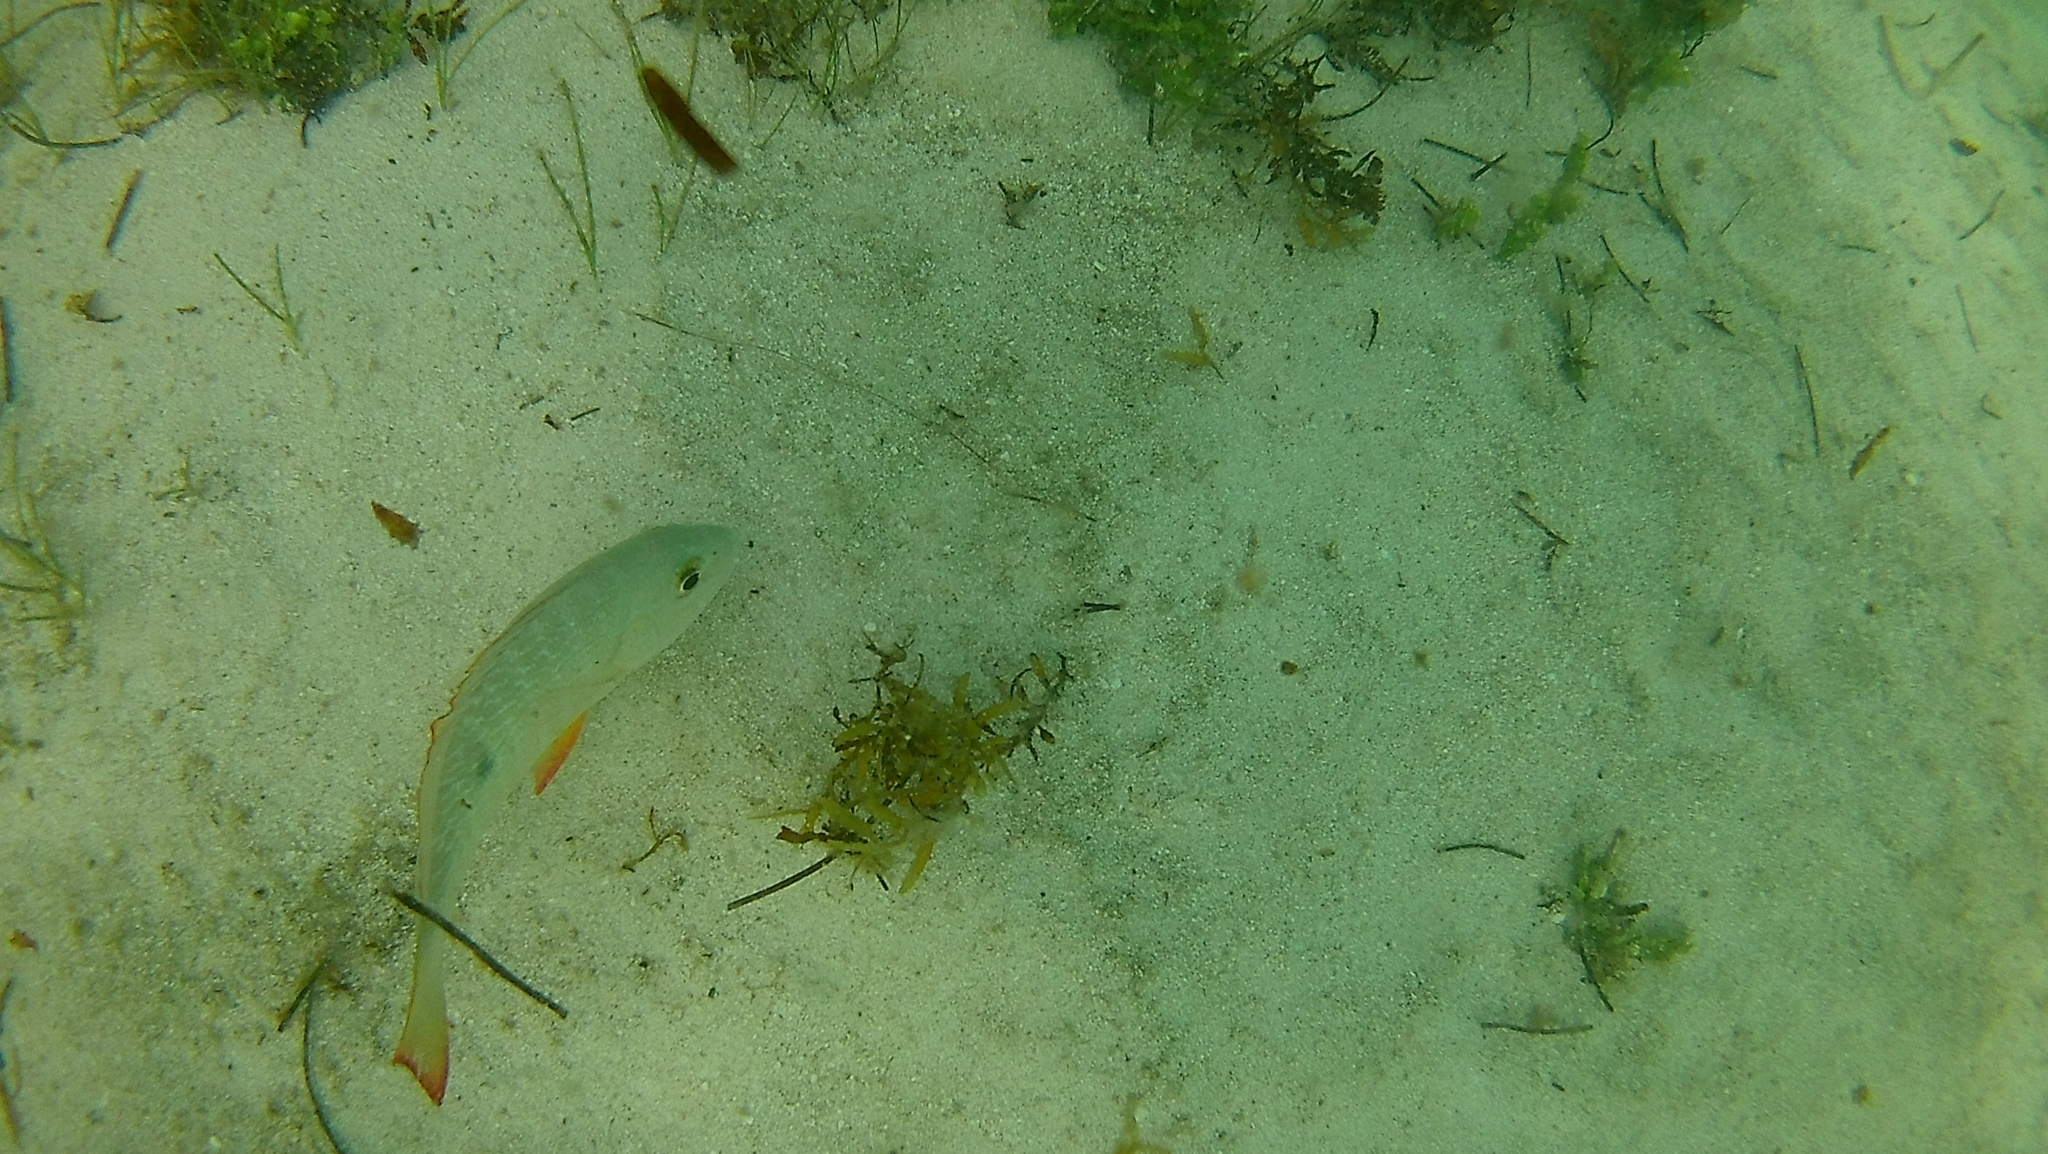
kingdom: Animalia
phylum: Chordata
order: Perciformes
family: Lutjanidae
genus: Lutjanus
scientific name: Lutjanus analis
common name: Mutton snapper
